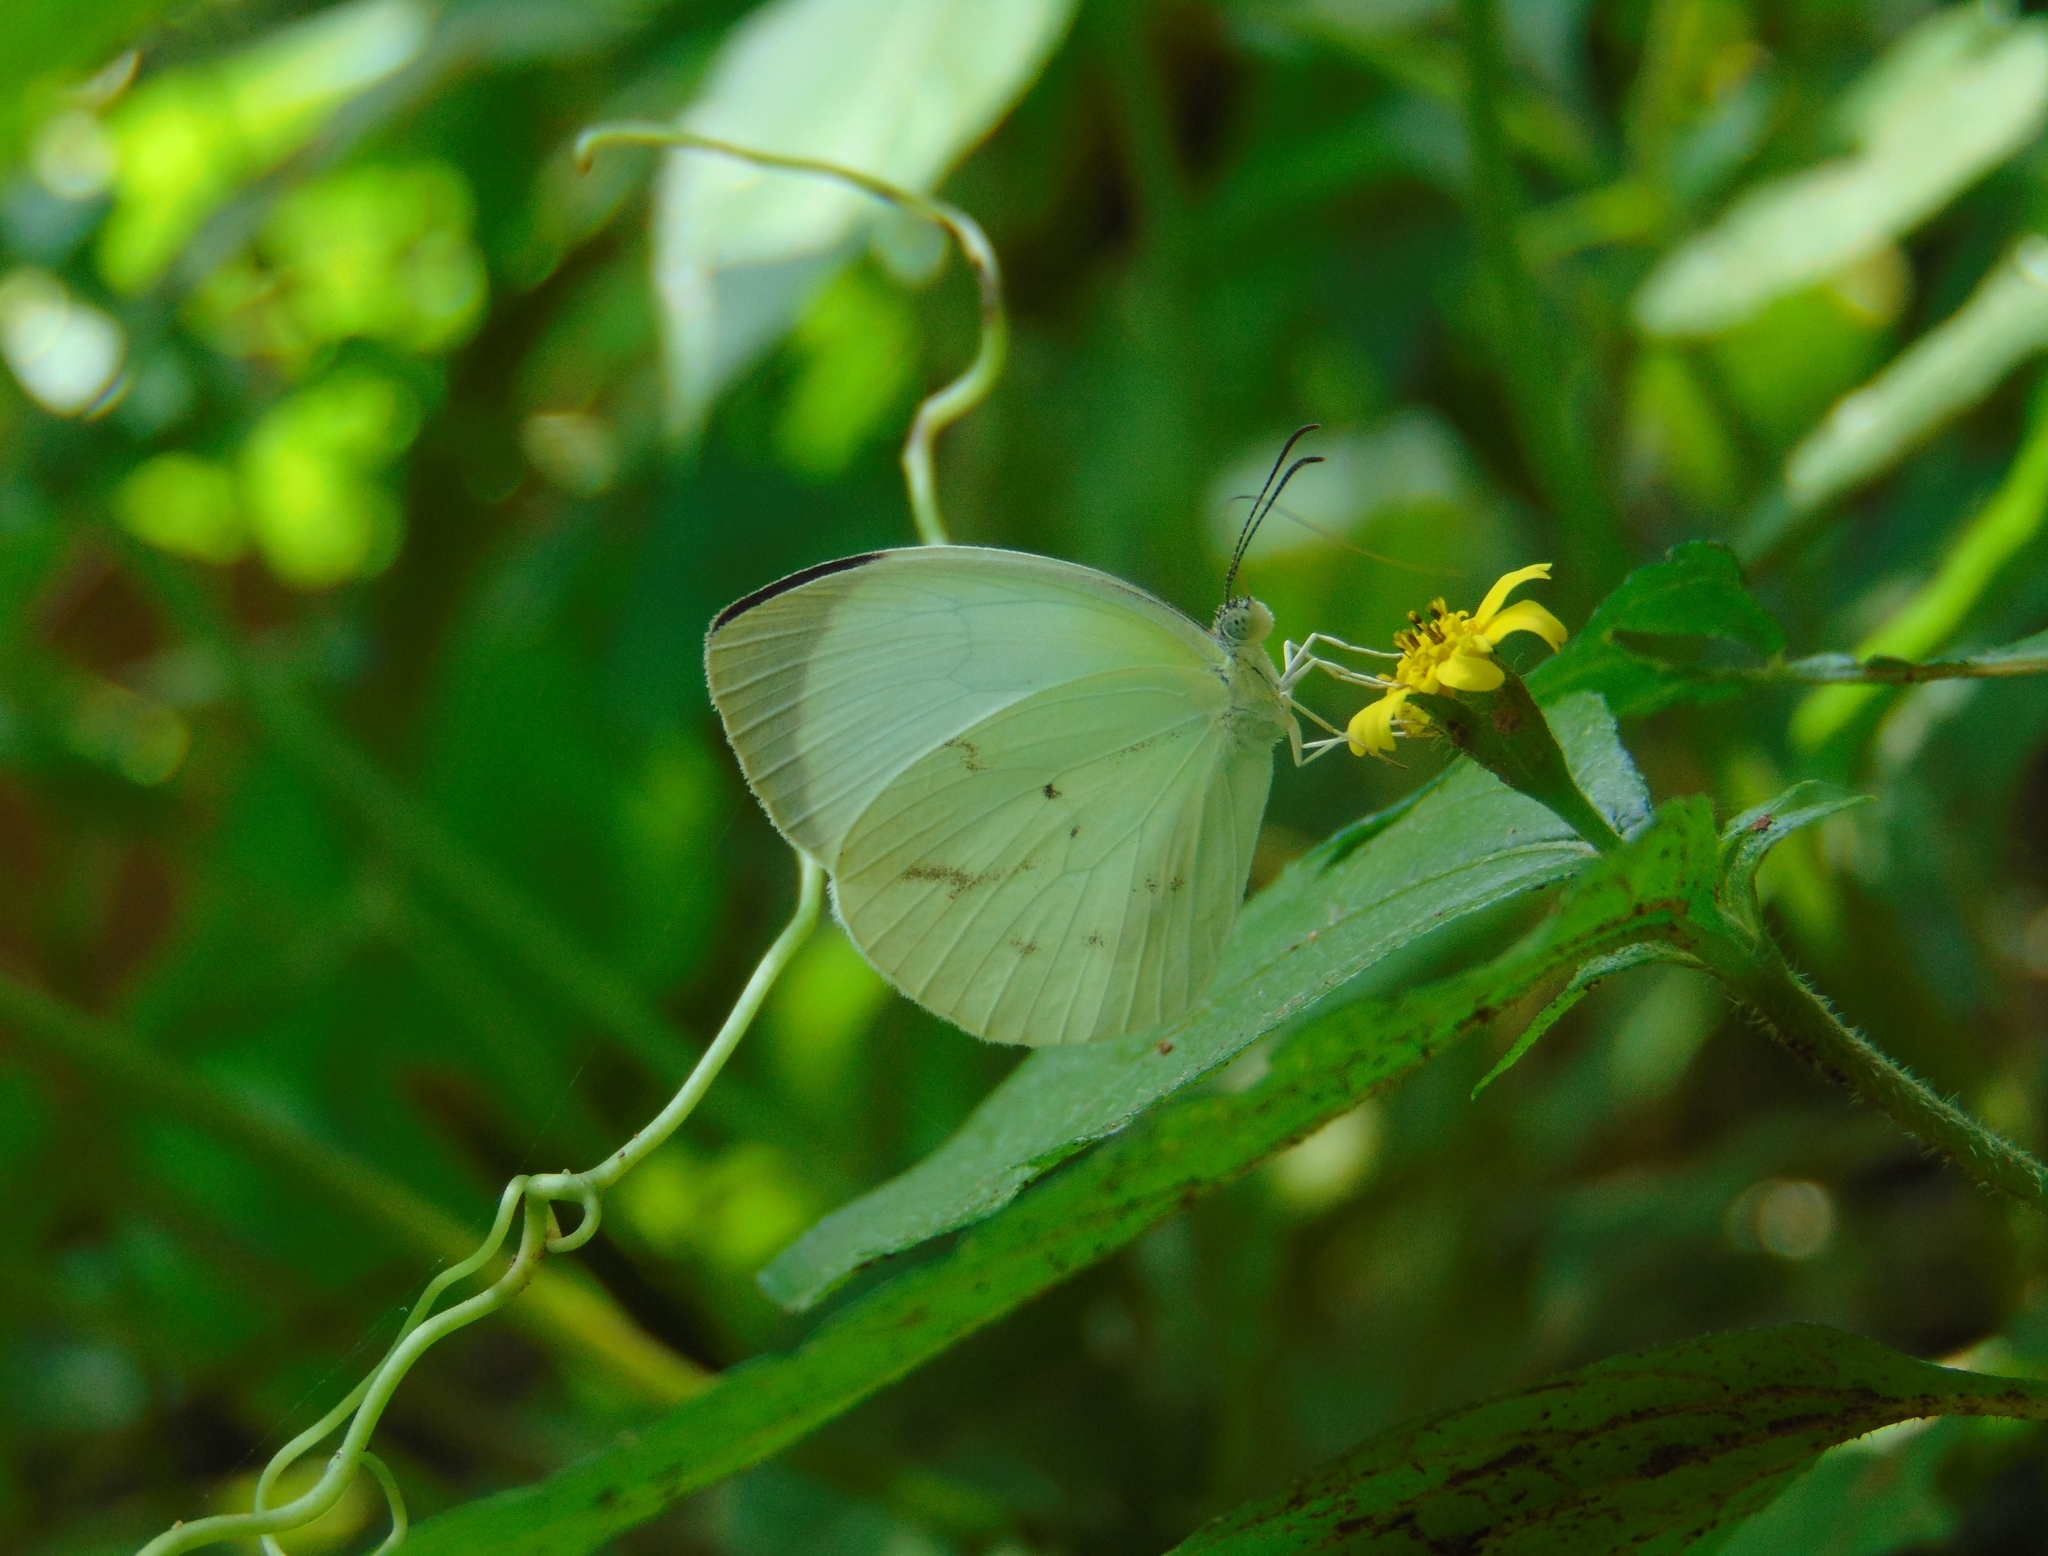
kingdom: Animalia
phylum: Arthropoda
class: Insecta
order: Lepidoptera
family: Pieridae
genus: Abaeis
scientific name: Abaeis albula
